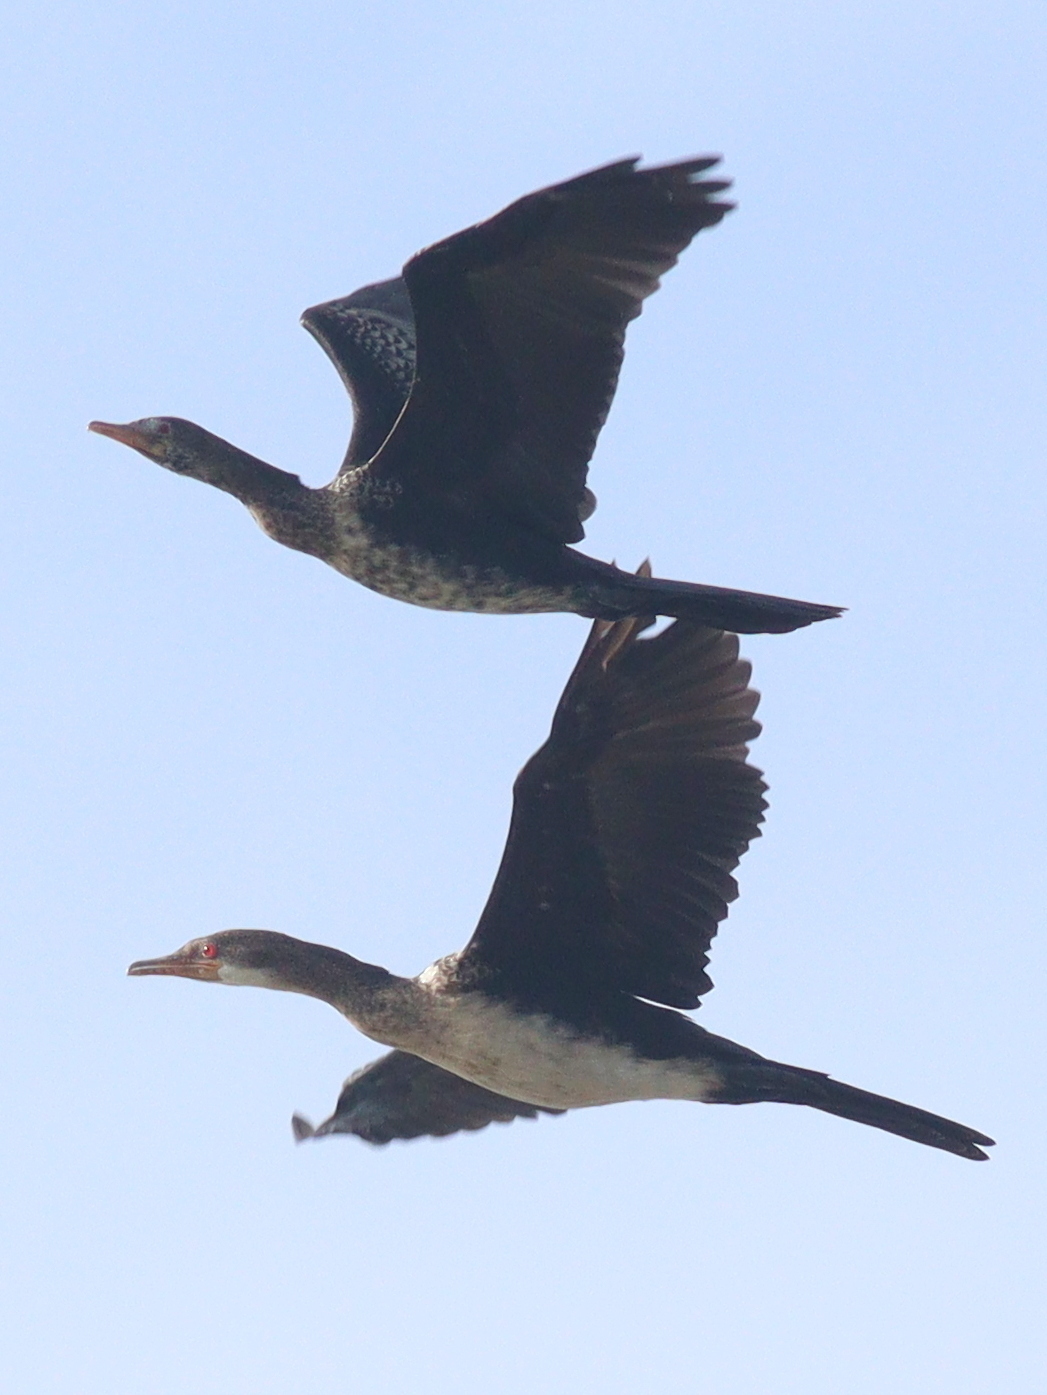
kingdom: Animalia
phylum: Chordata
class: Aves
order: Suliformes
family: Phalacrocoracidae
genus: Microcarbo
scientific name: Microcarbo africanus
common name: Long-tailed cormorant
